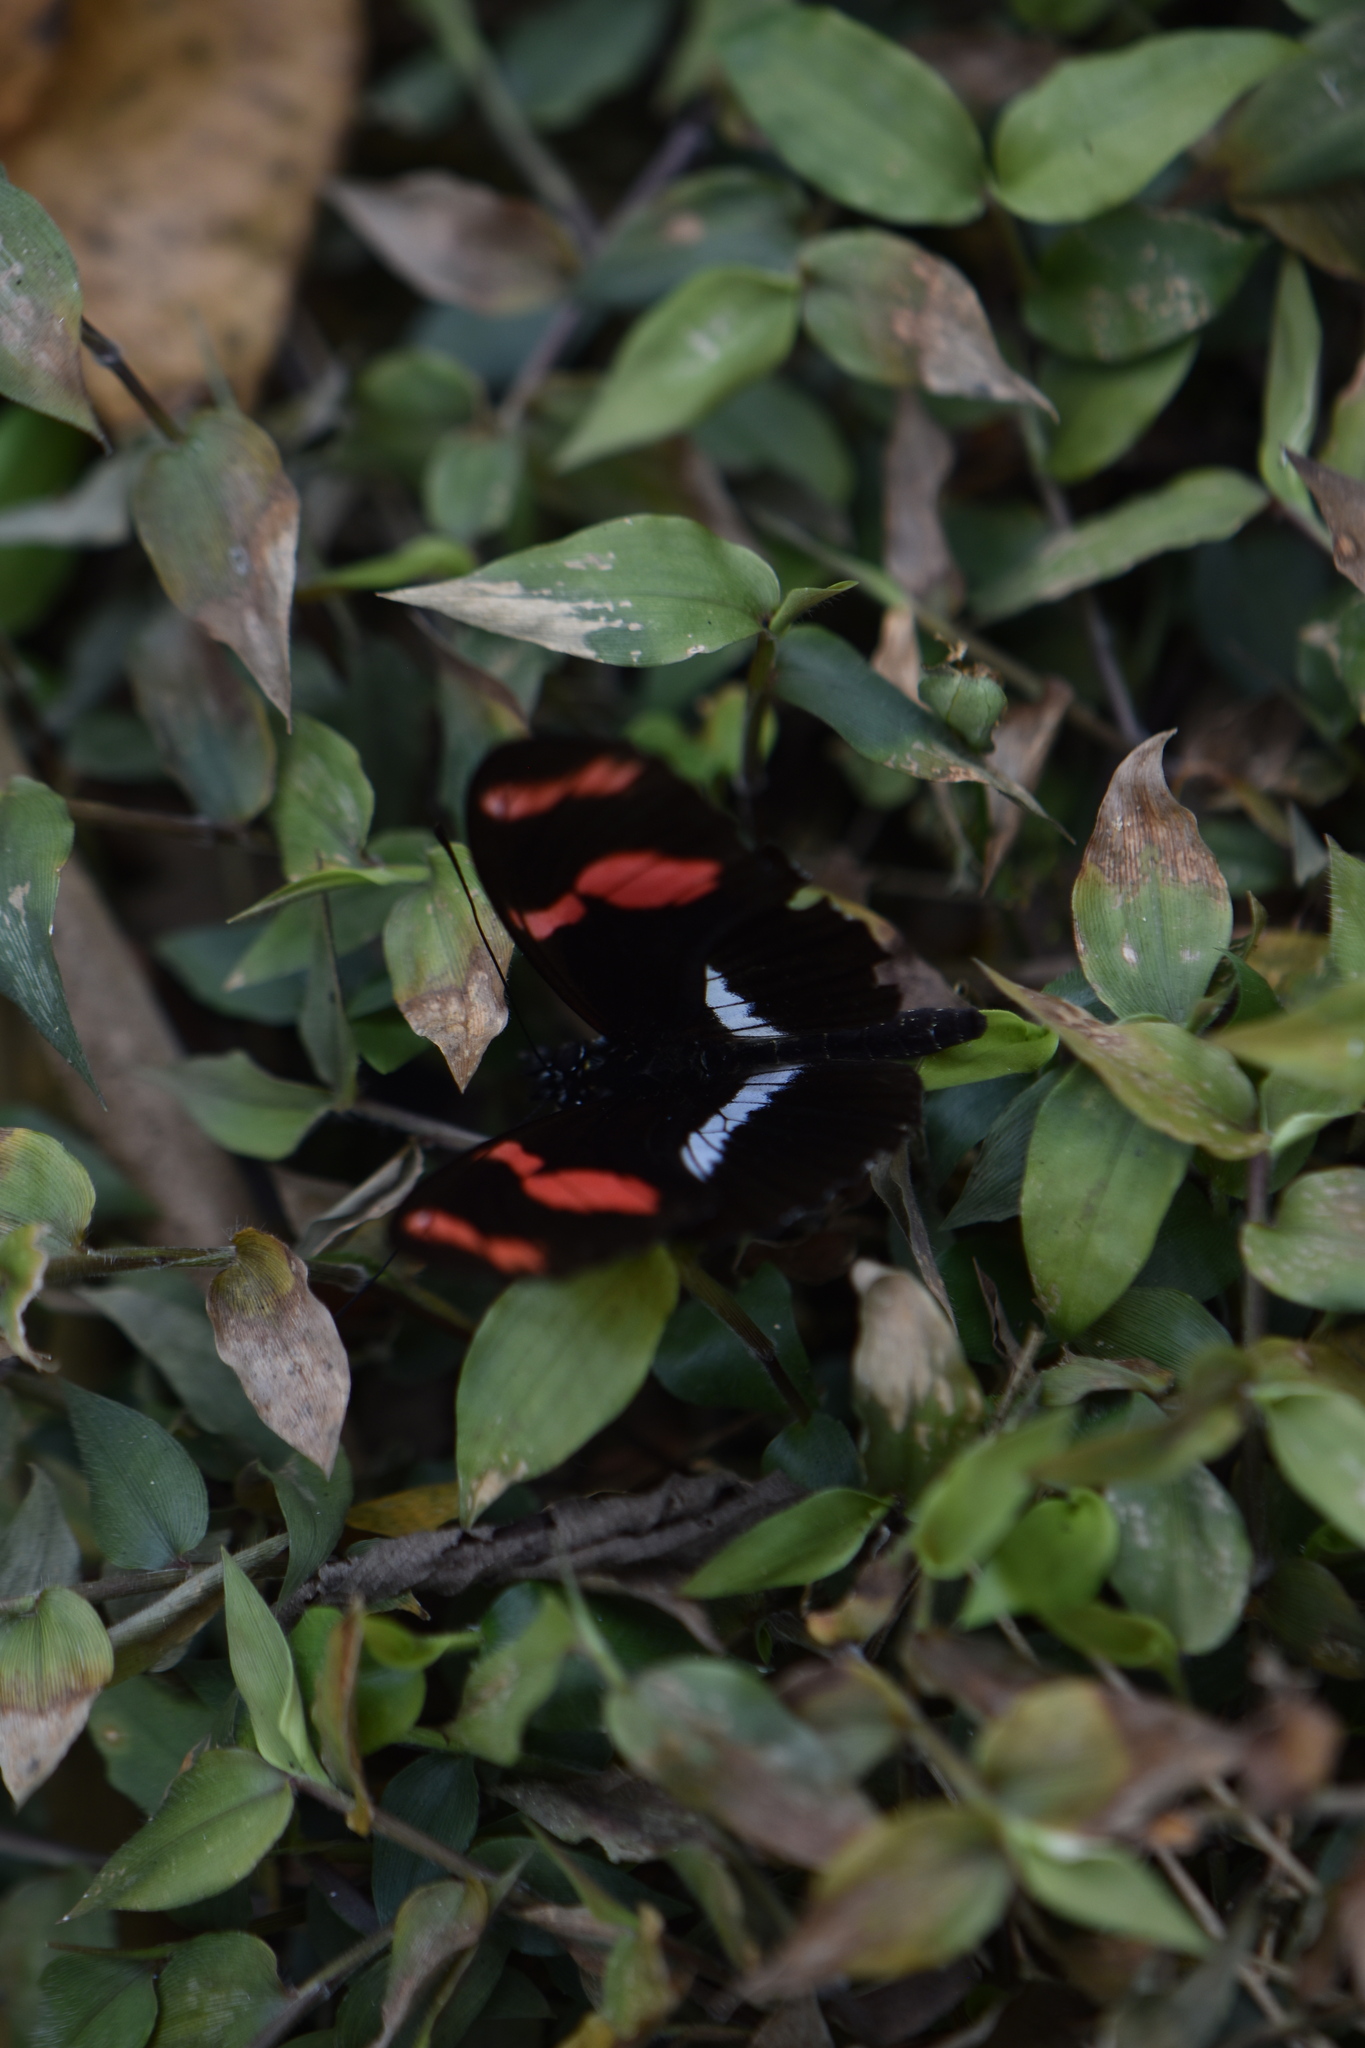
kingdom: Animalia
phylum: Arthropoda
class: Insecta
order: Lepidoptera
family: Nymphalidae
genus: Heliconius
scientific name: Heliconius telesiphe
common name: Telesiphe longwing
